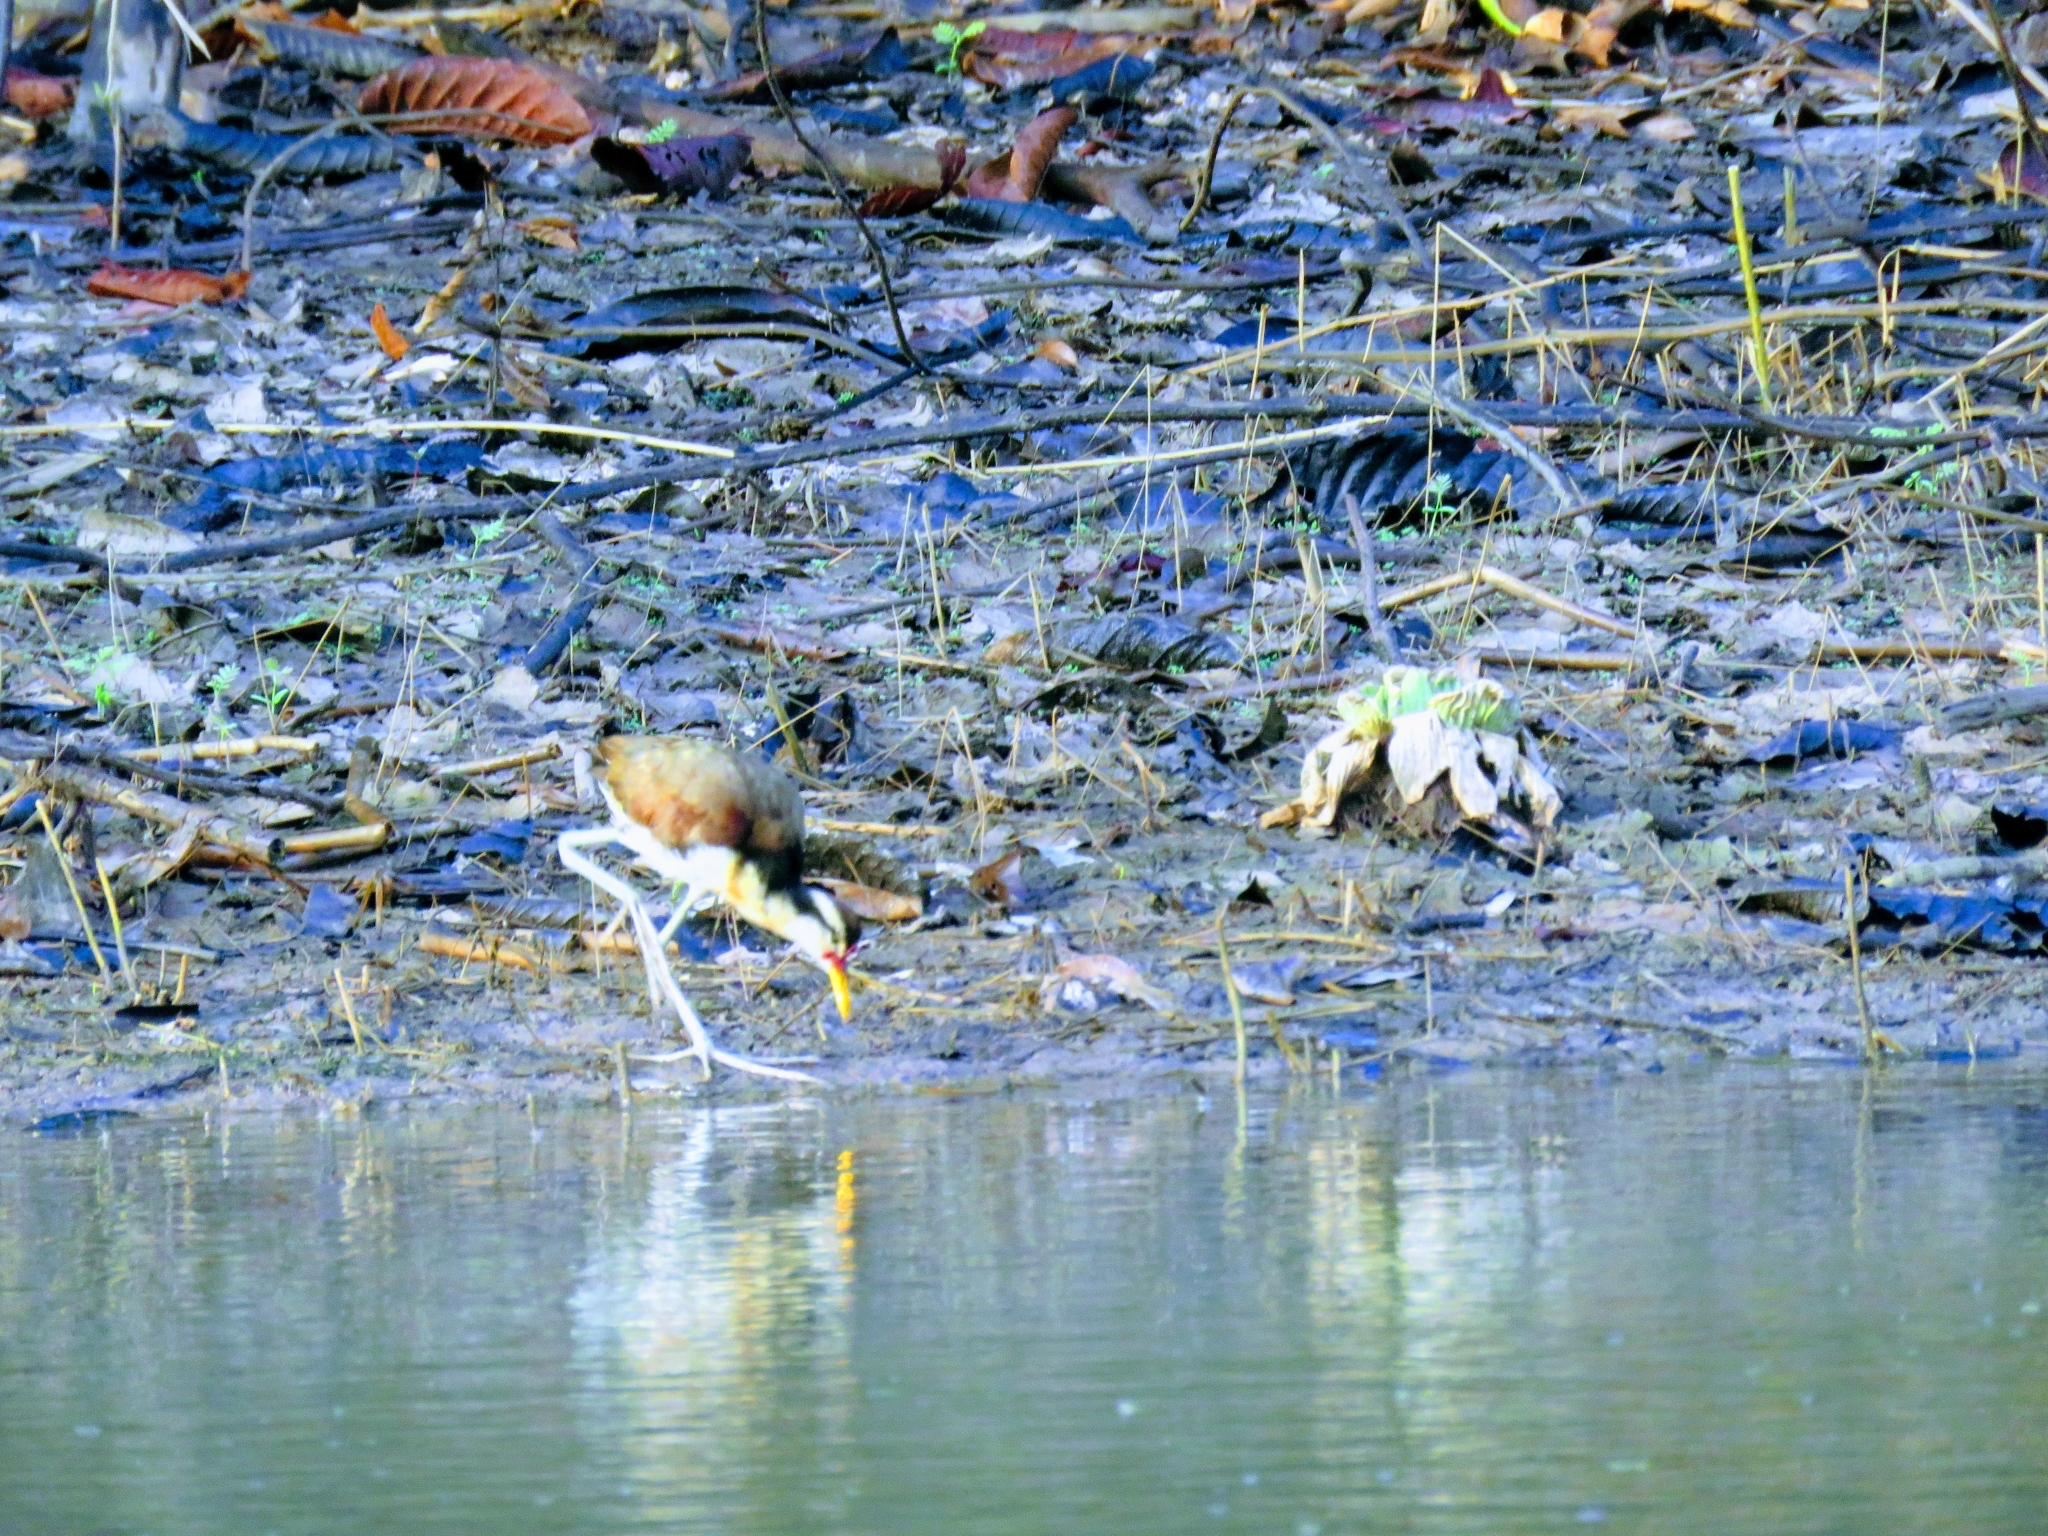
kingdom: Animalia
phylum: Chordata
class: Aves
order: Charadriiformes
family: Jacanidae
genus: Jacana
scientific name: Jacana jacana
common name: Wattled jacana
